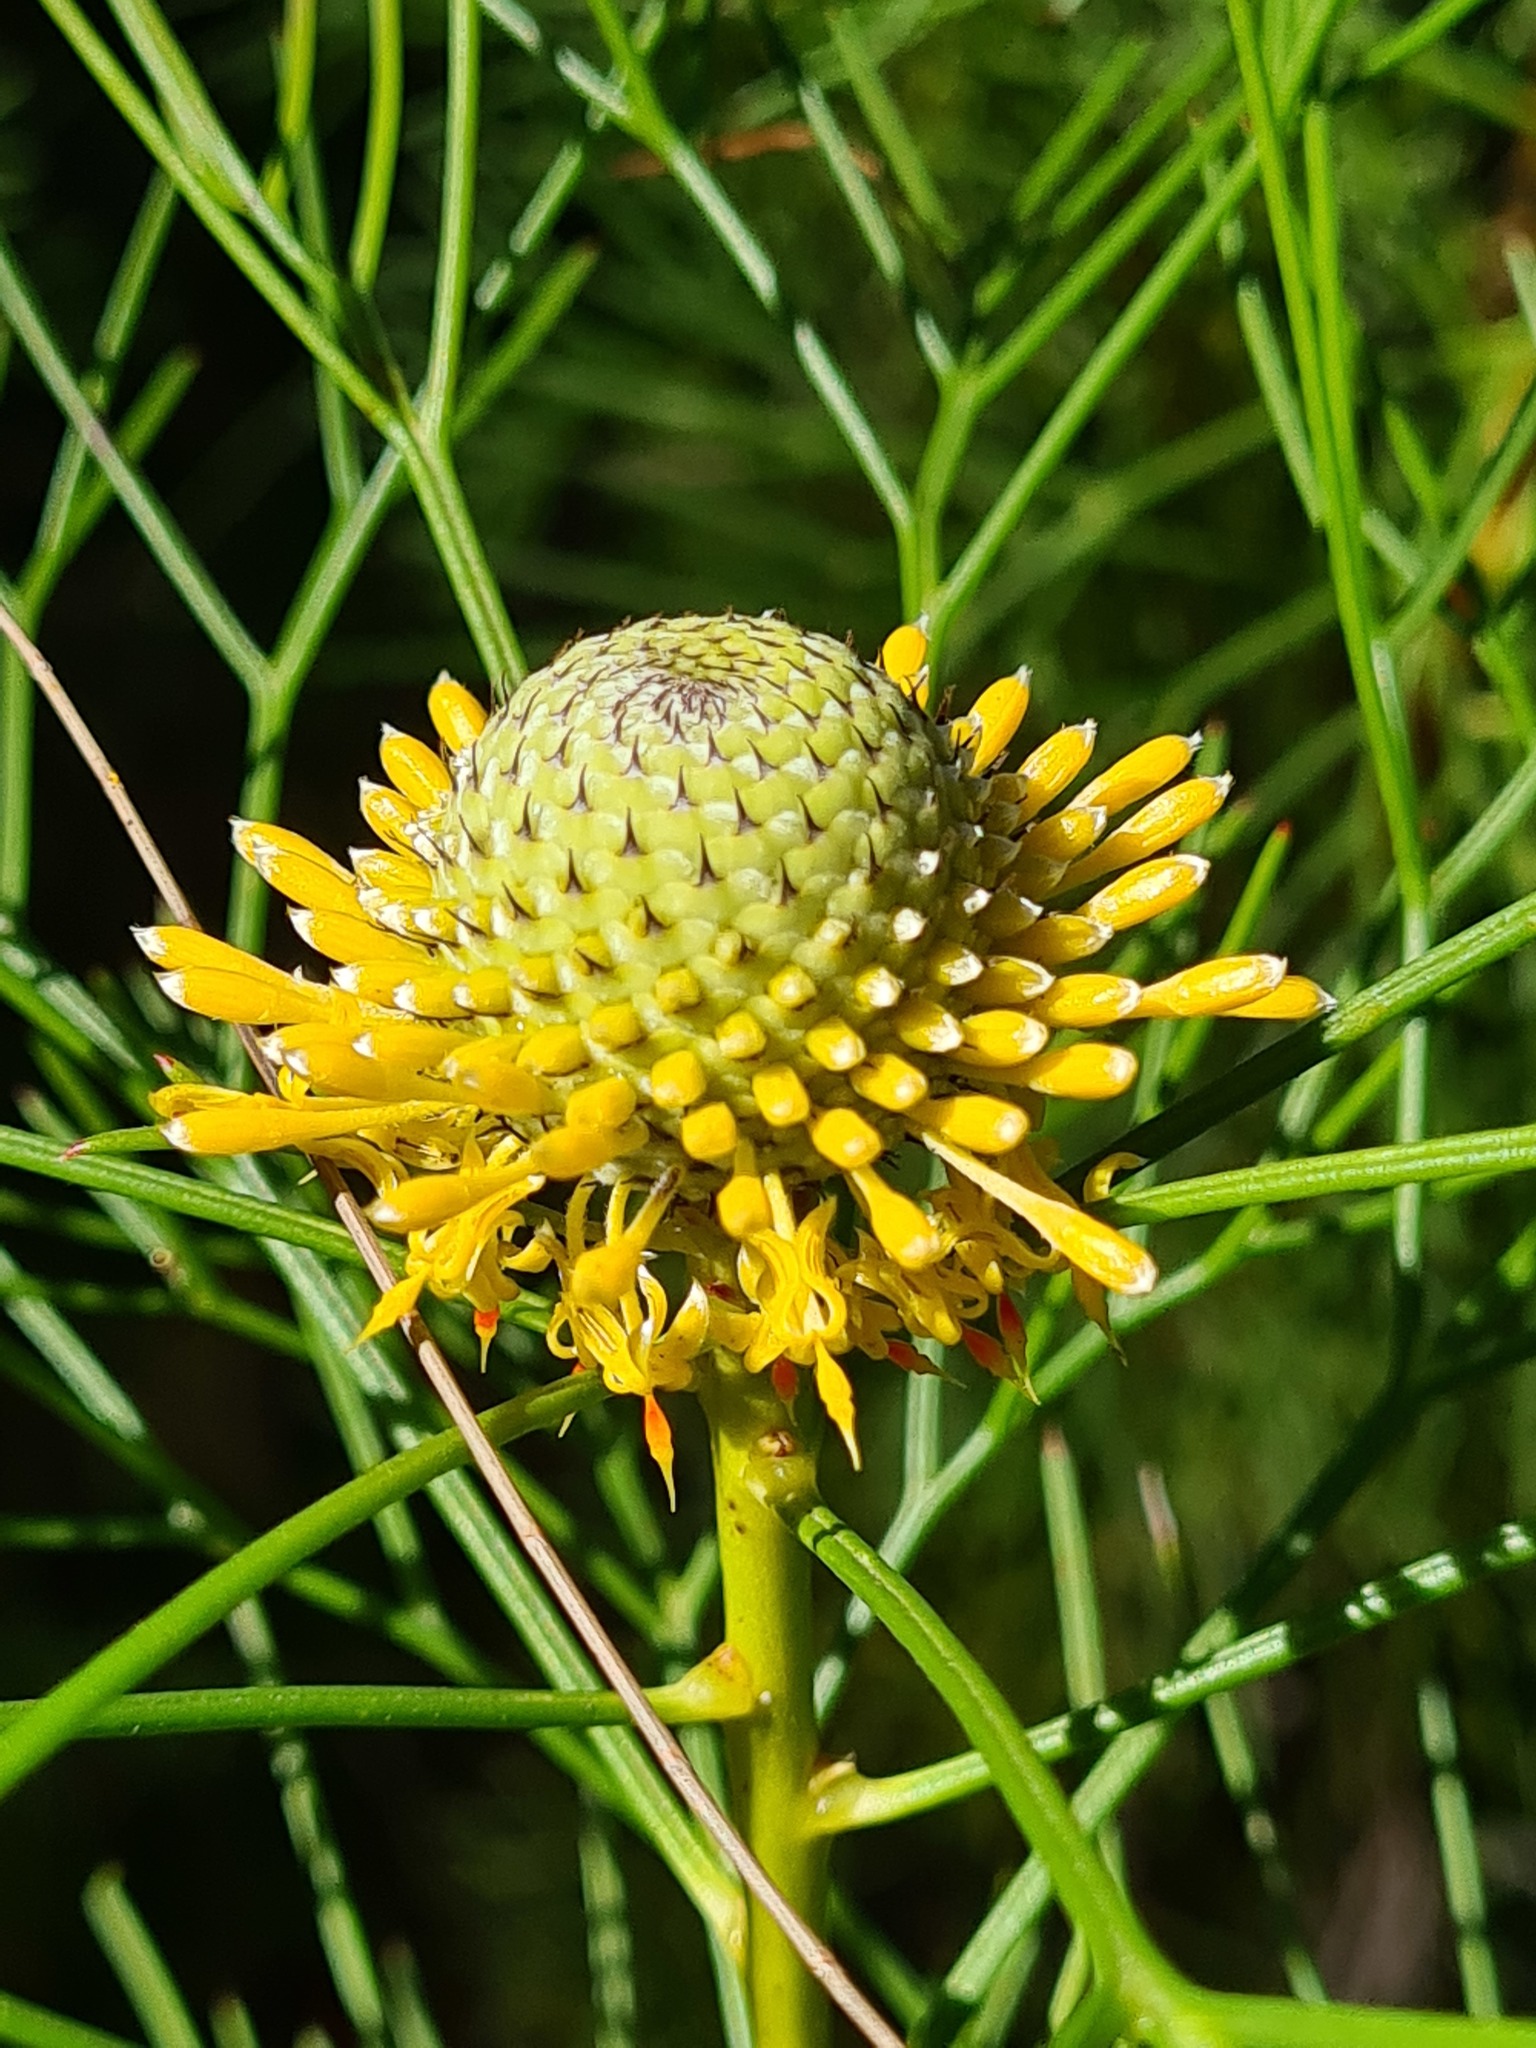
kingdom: Plantae
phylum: Tracheophyta
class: Magnoliopsida
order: Proteales
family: Proteaceae
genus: Isopogon
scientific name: Isopogon anethifolius
